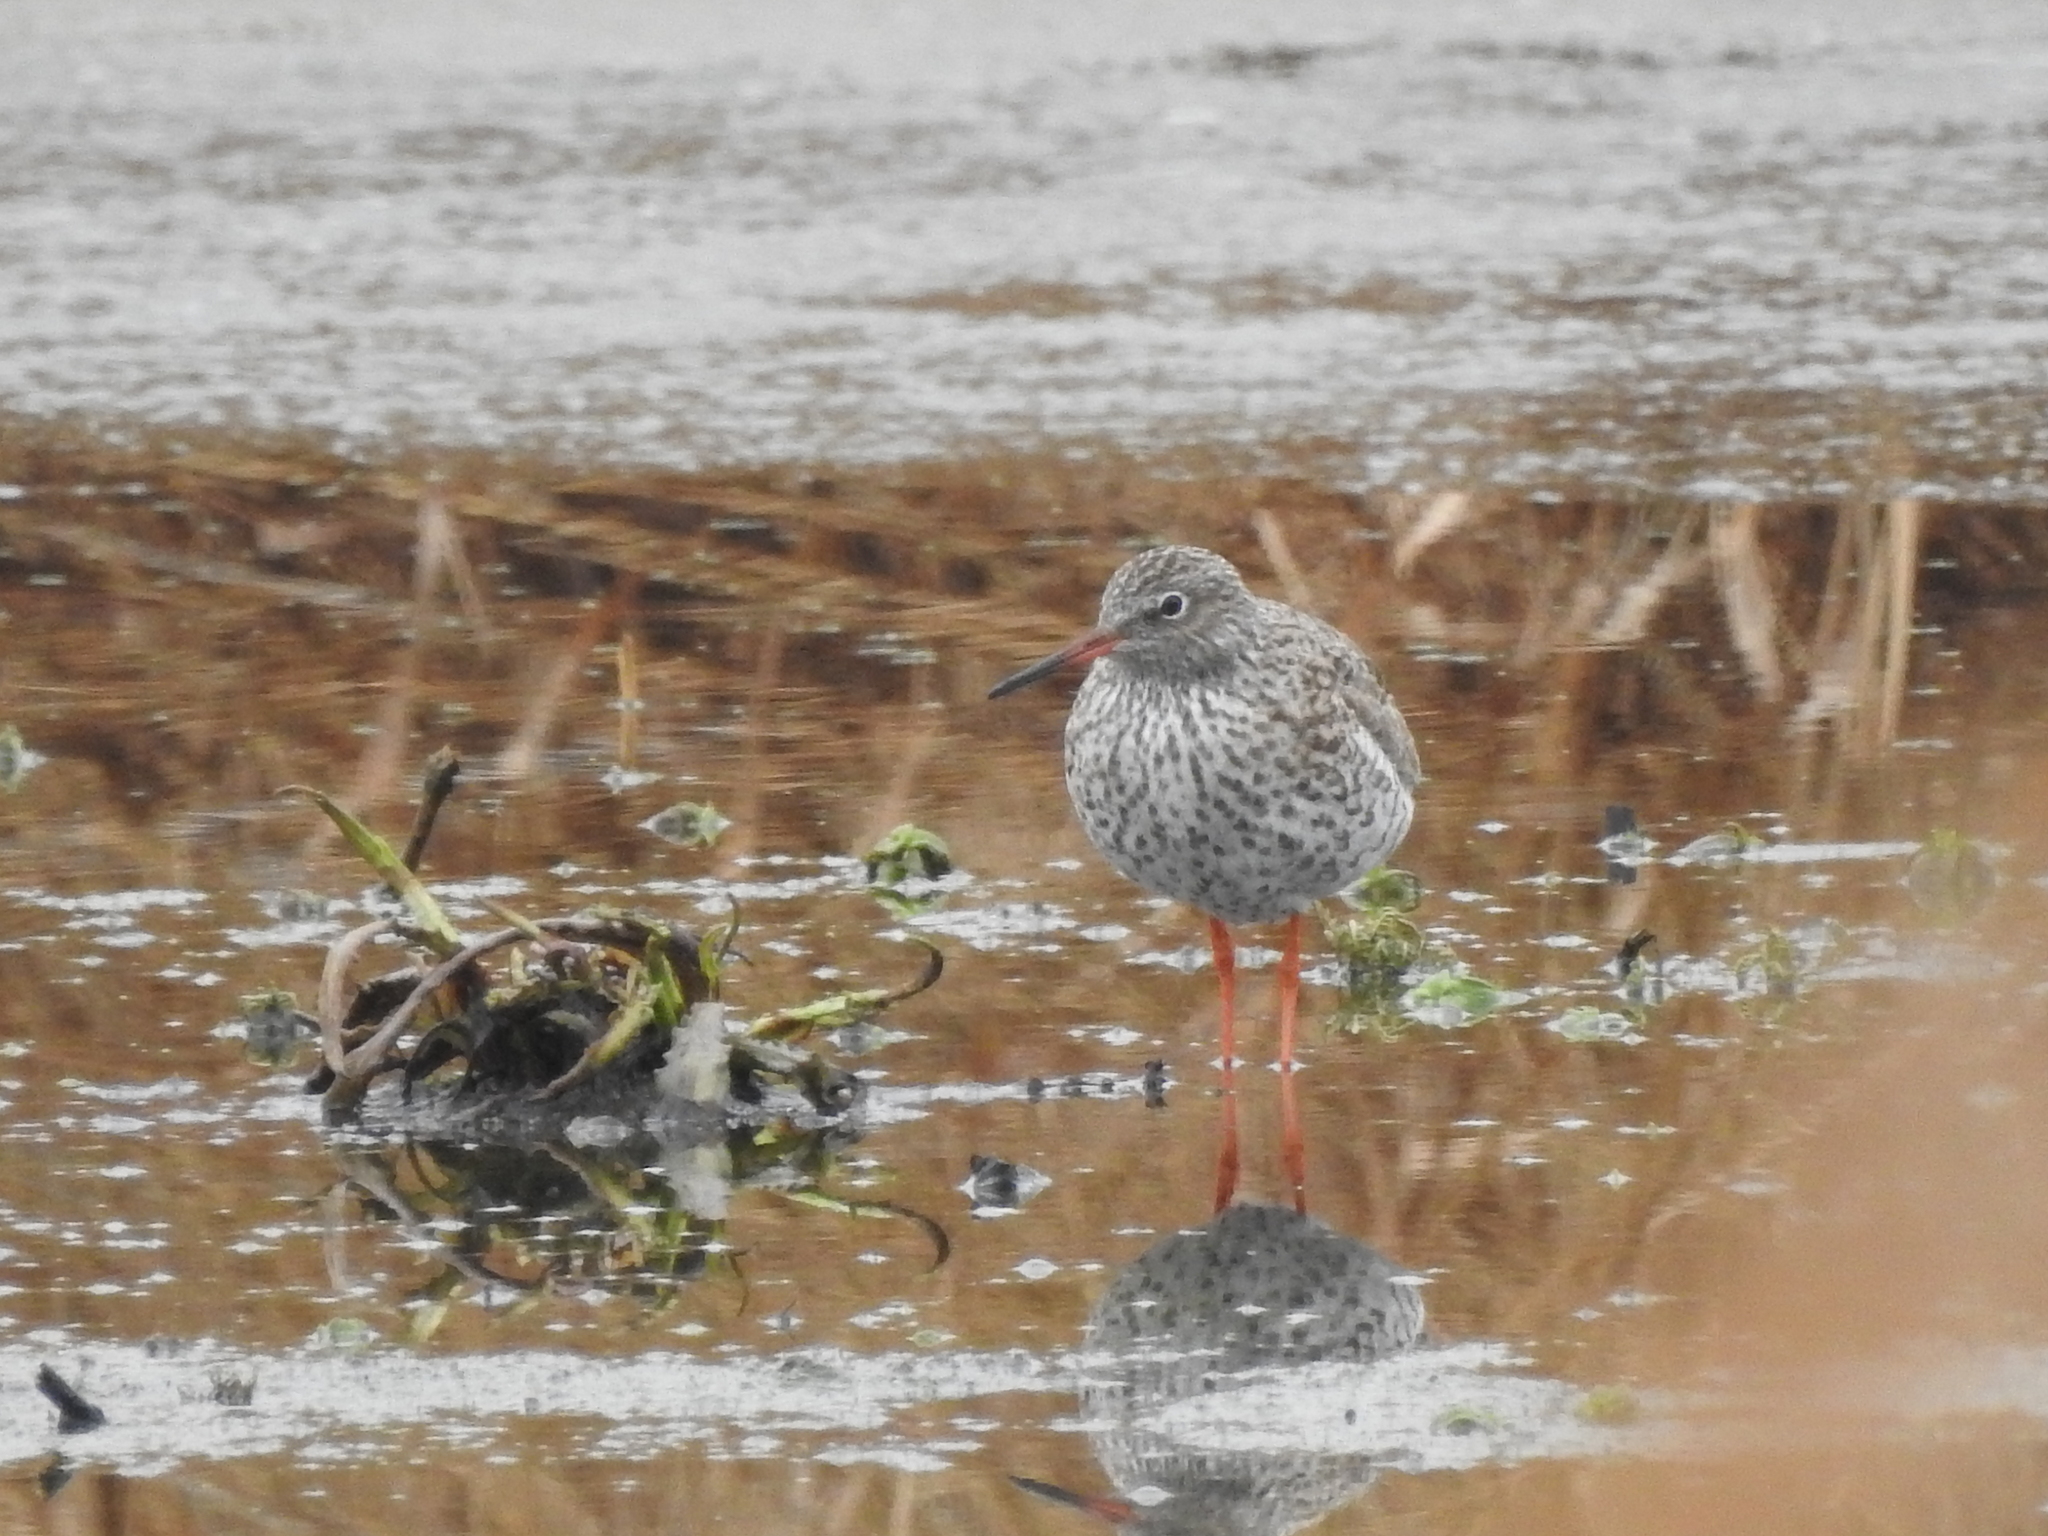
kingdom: Animalia
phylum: Chordata
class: Aves
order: Charadriiformes
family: Scolopacidae
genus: Tringa
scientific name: Tringa totanus
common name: Common redshank
